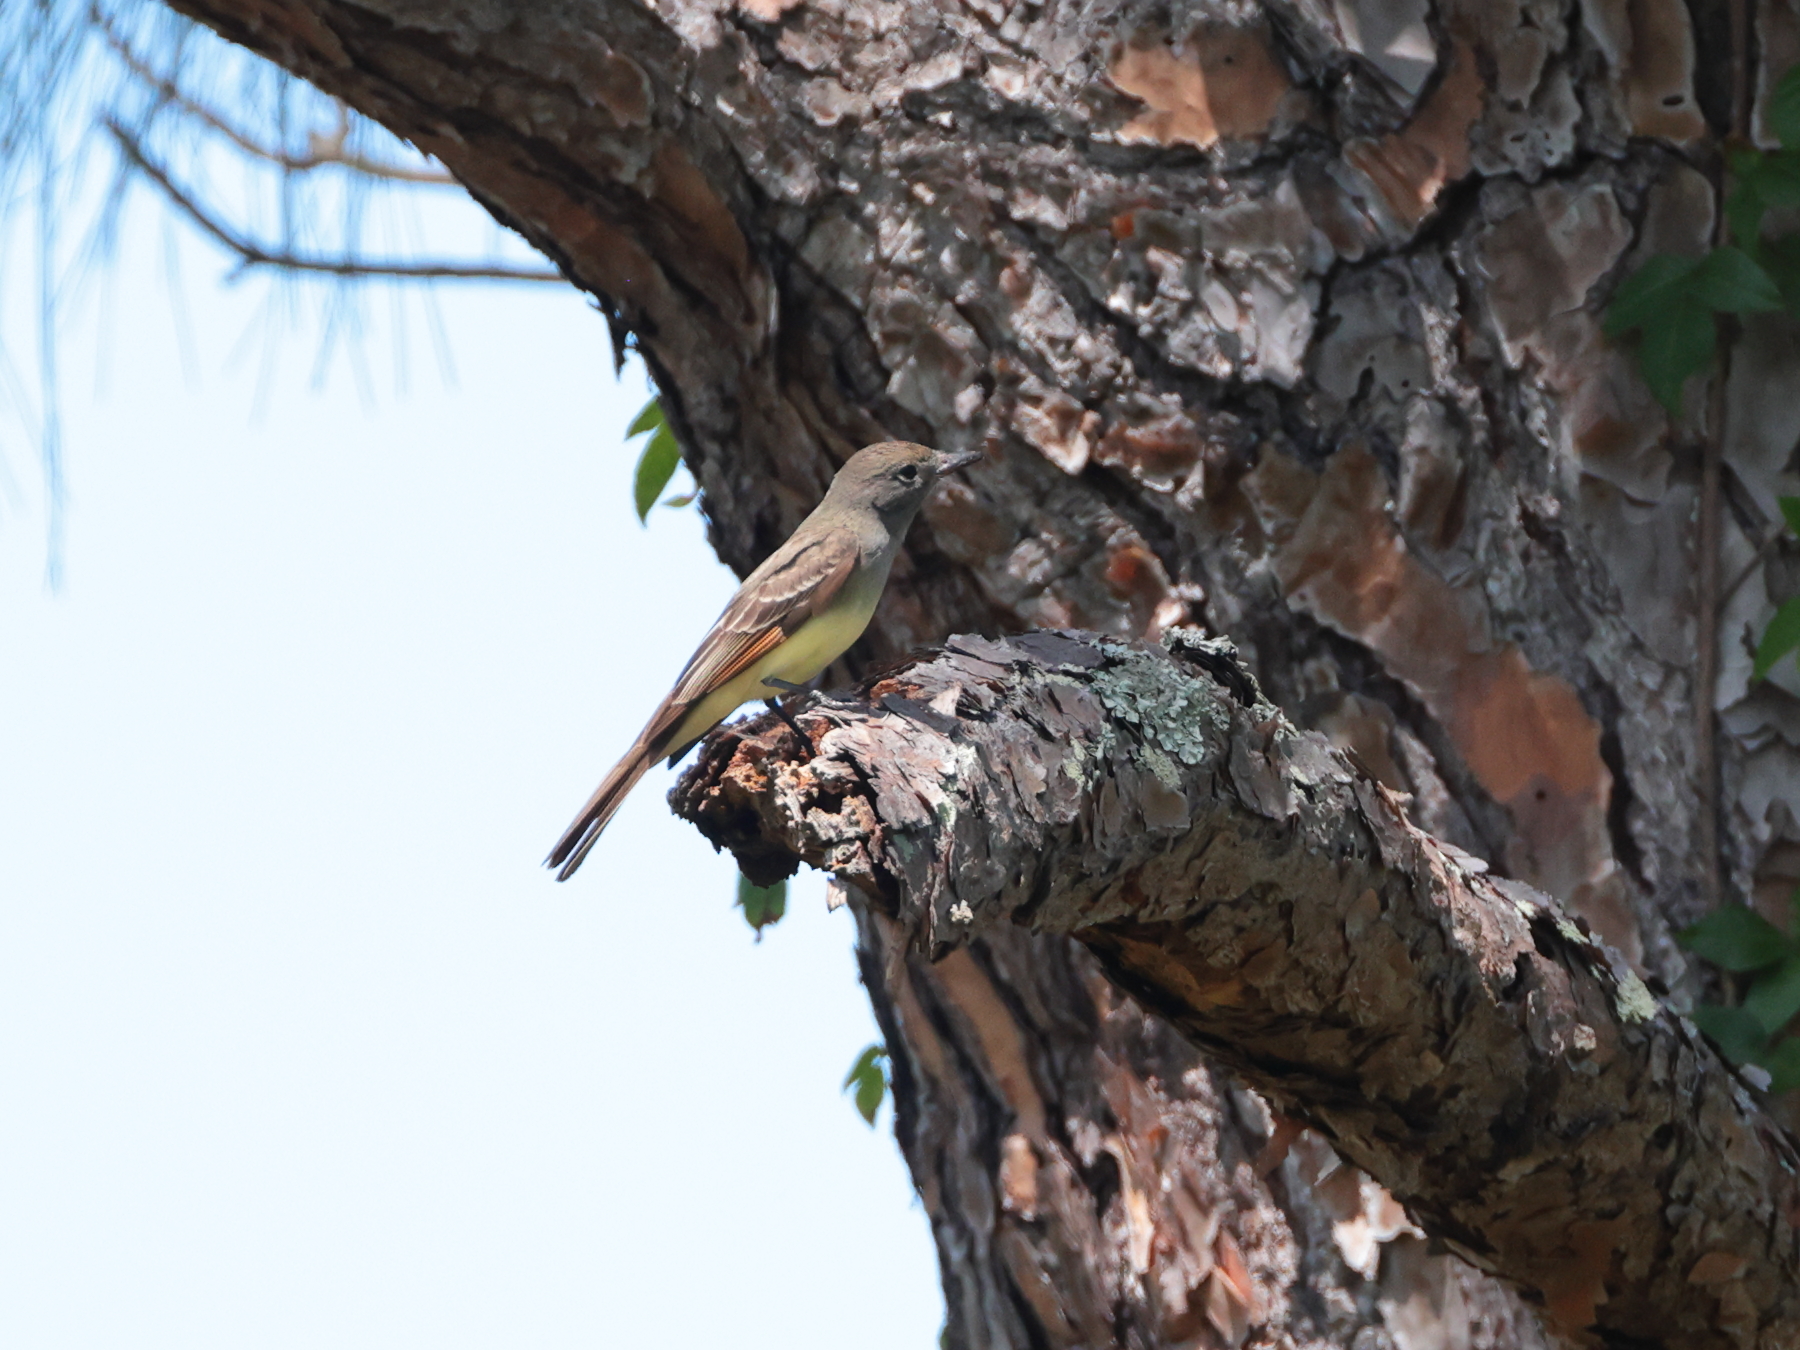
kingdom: Animalia
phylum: Chordata
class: Aves
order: Passeriformes
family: Tyrannidae
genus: Myiarchus
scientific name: Myiarchus crinitus
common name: Great crested flycatcher
